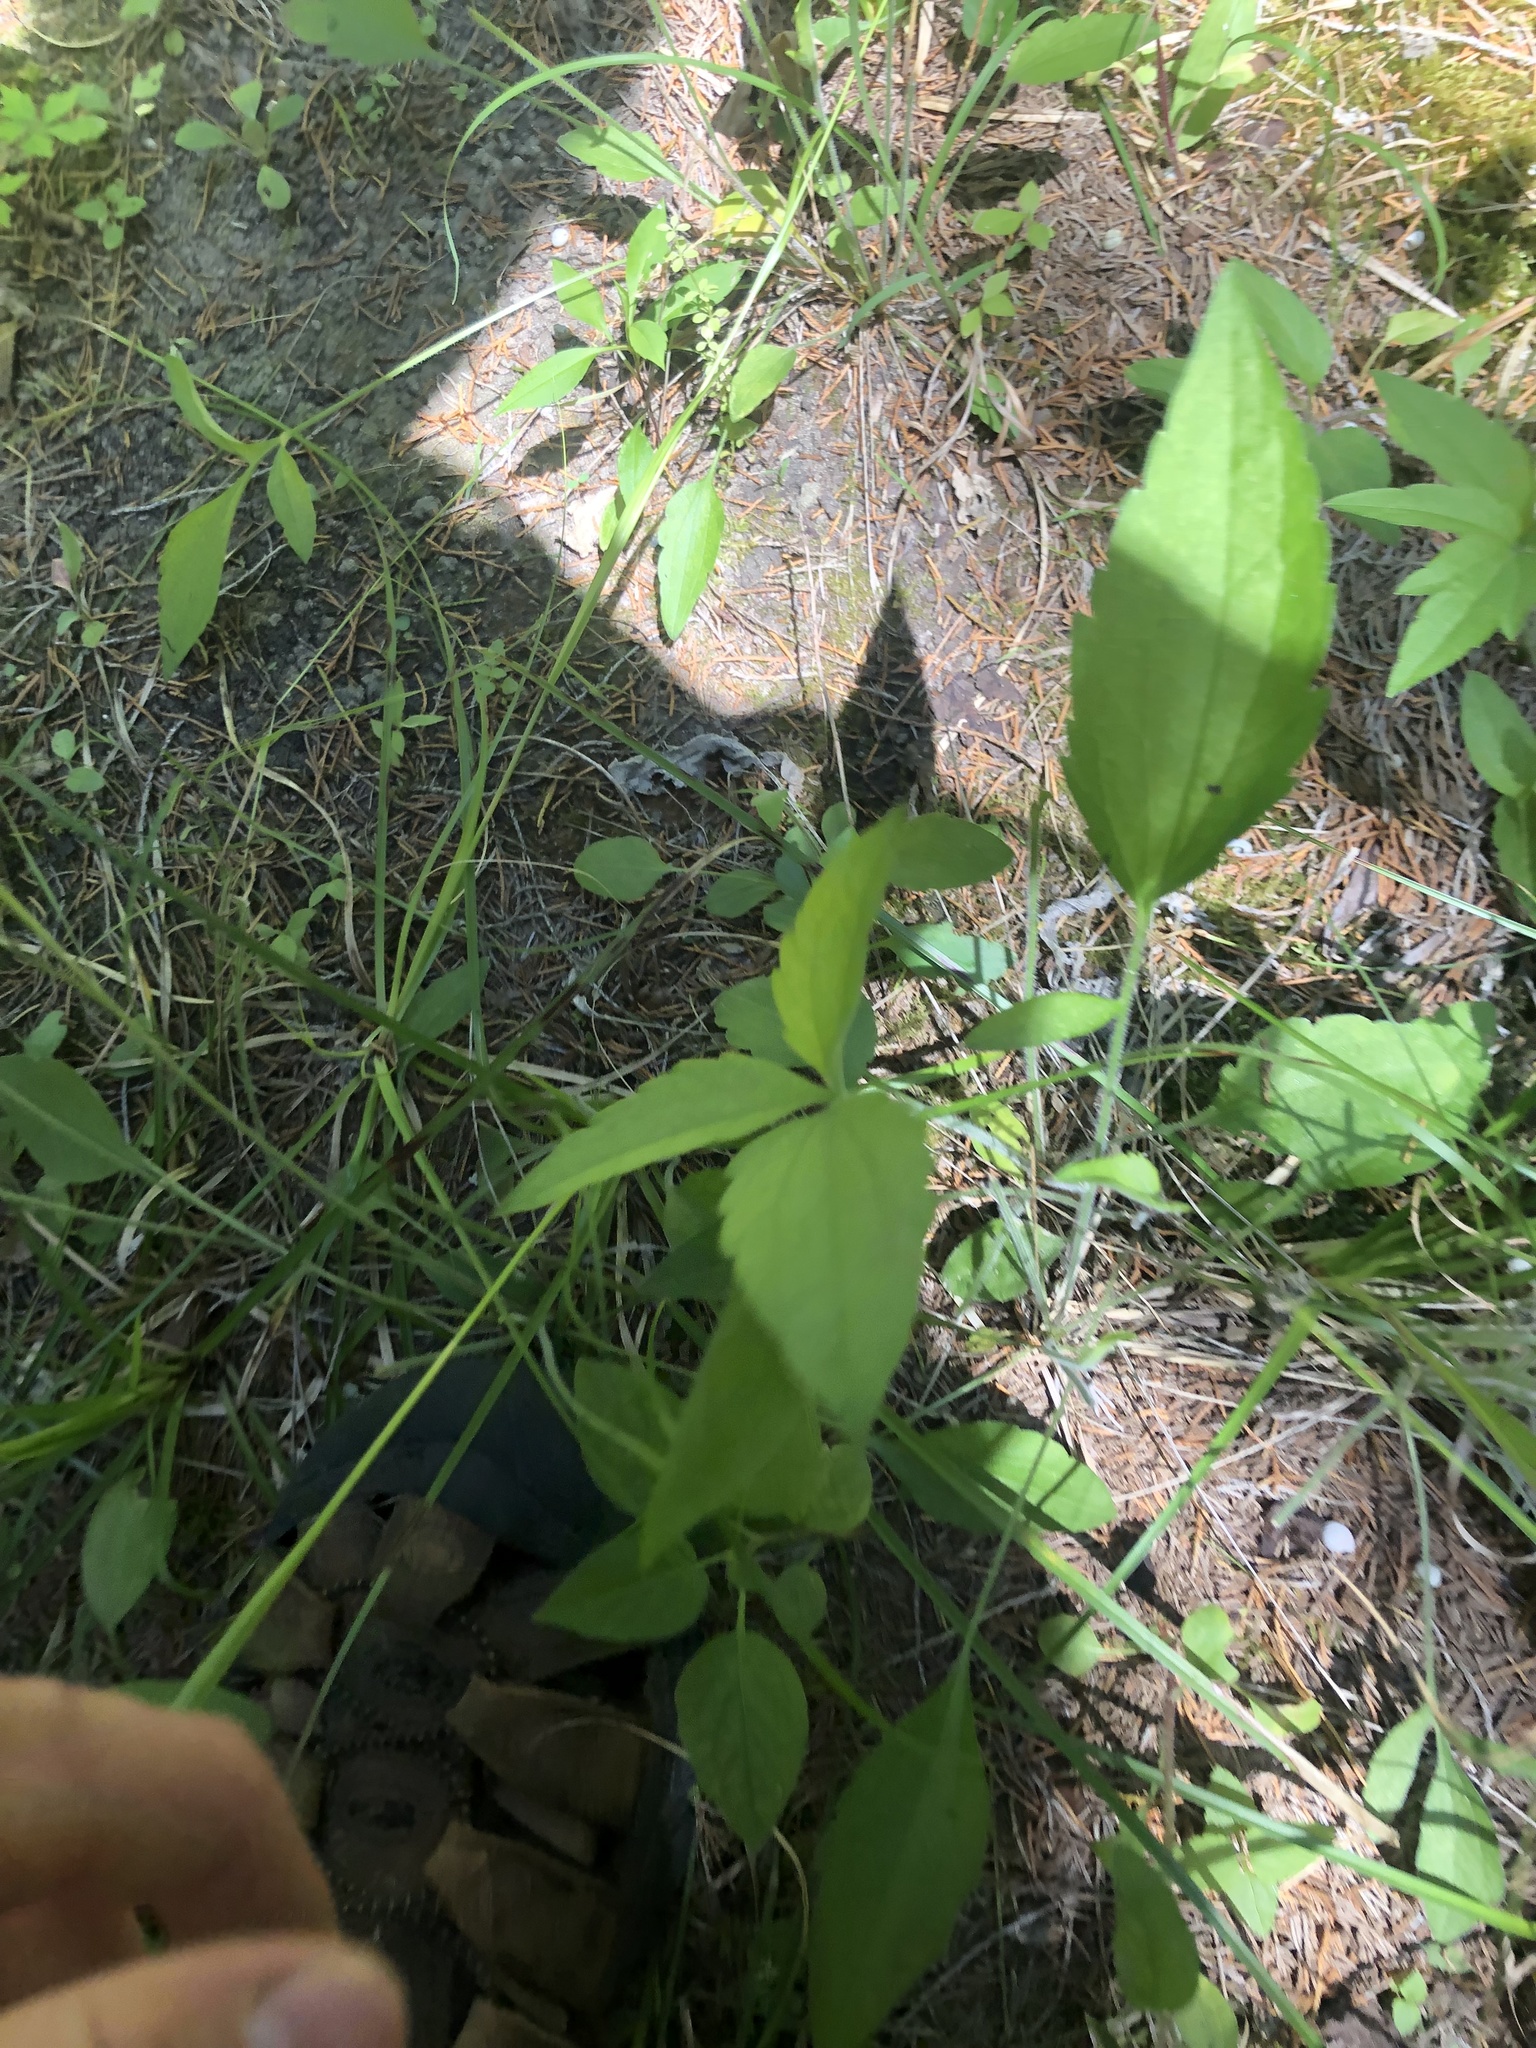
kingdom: Plantae
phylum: Tracheophyta
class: Magnoliopsida
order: Asterales
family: Asteraceae
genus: Ratibida
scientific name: Ratibida pinnata
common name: Drooping prairie-coneflower
